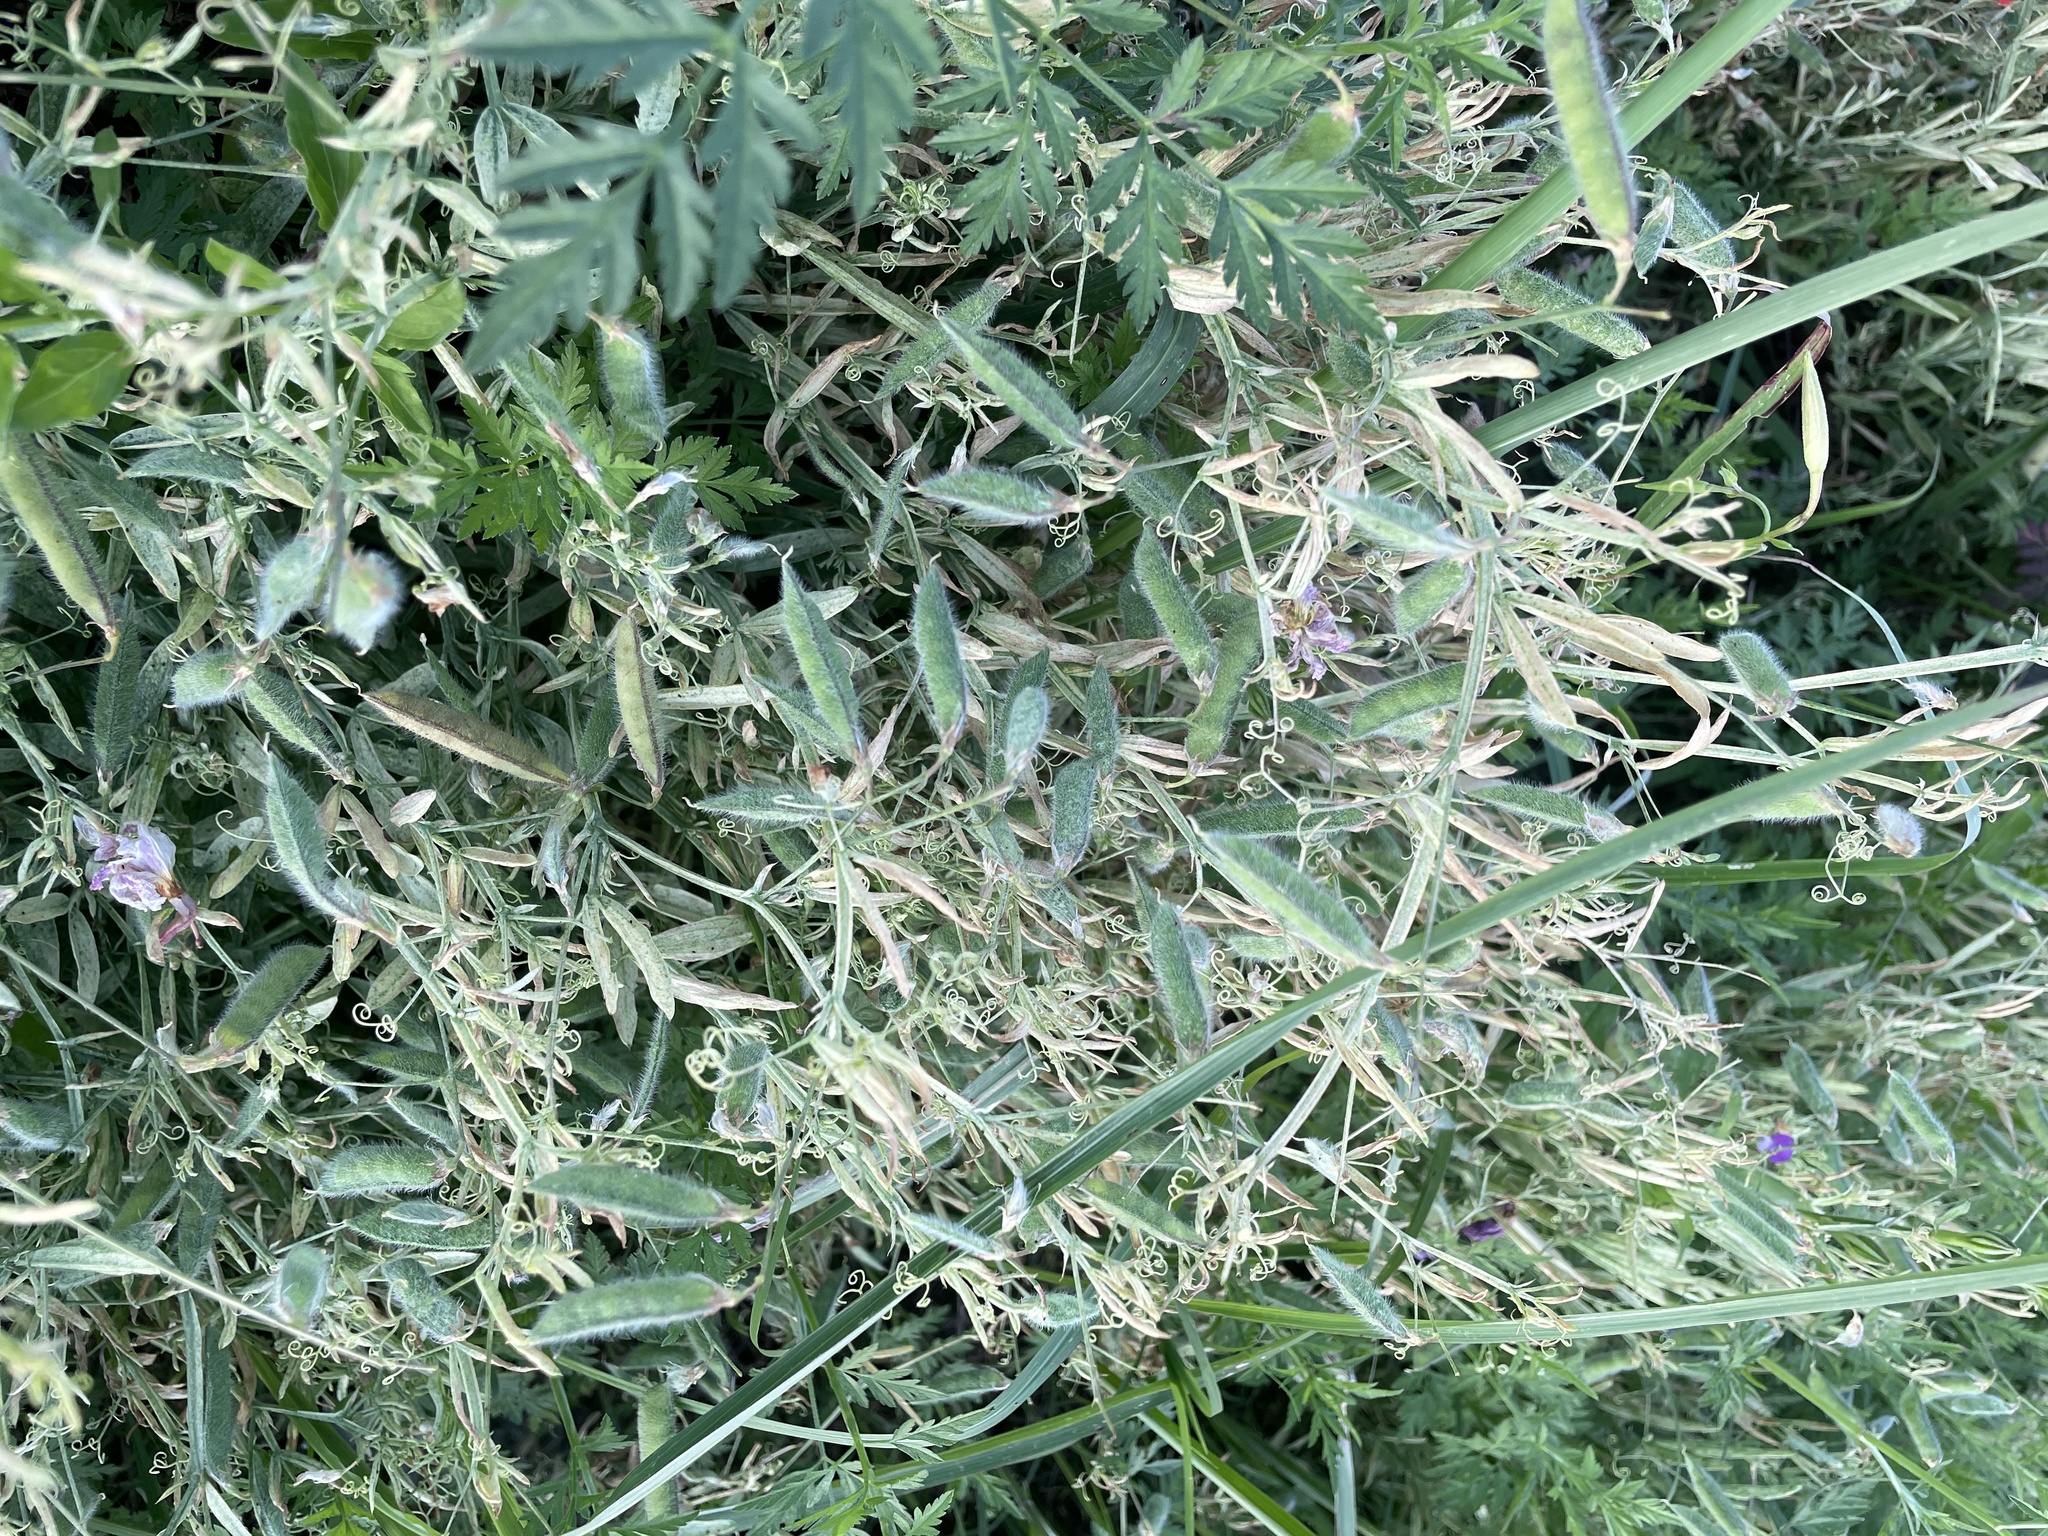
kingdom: Plantae
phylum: Tracheophyta
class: Magnoliopsida
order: Fabales
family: Fabaceae
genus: Lathyrus
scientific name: Lathyrus hirsutus
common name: Hairy vetchling
